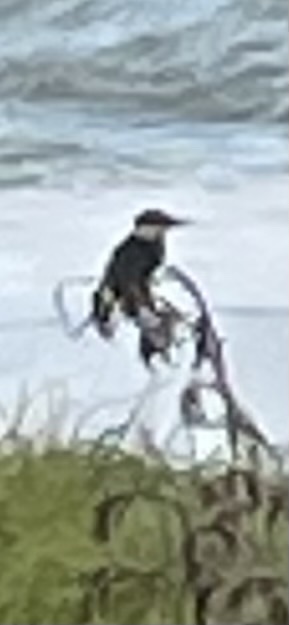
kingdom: Animalia
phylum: Chordata
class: Aves
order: Coraciiformes
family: Alcedinidae
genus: Todiramphus
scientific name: Todiramphus sanctus
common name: Sacred kingfisher
